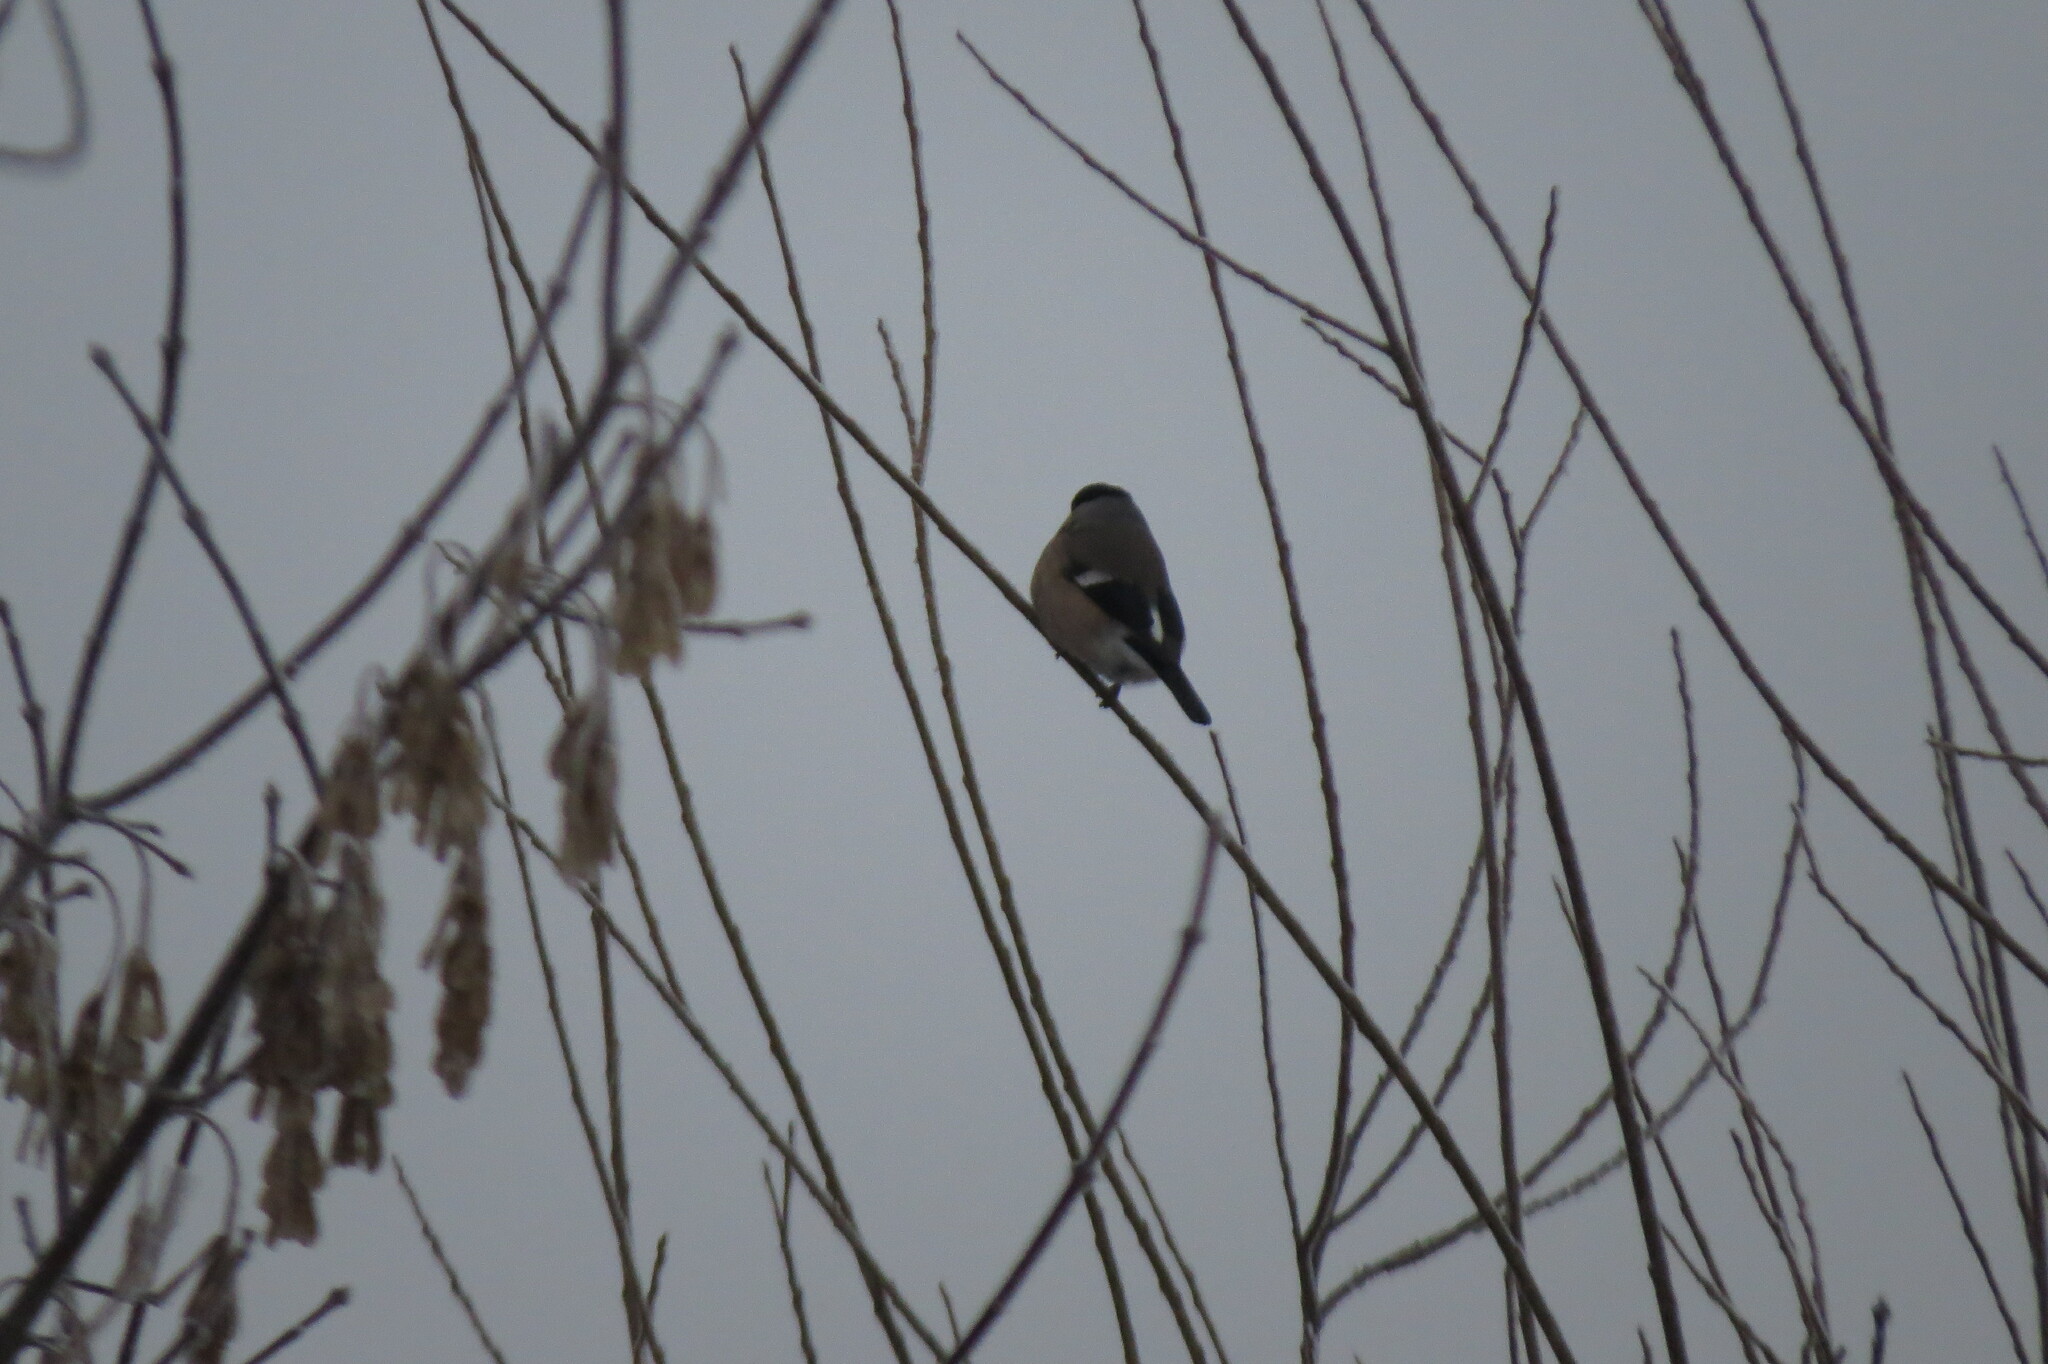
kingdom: Animalia
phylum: Chordata
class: Aves
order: Passeriformes
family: Fringillidae
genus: Pyrrhula
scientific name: Pyrrhula pyrrhula
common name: Eurasian bullfinch
